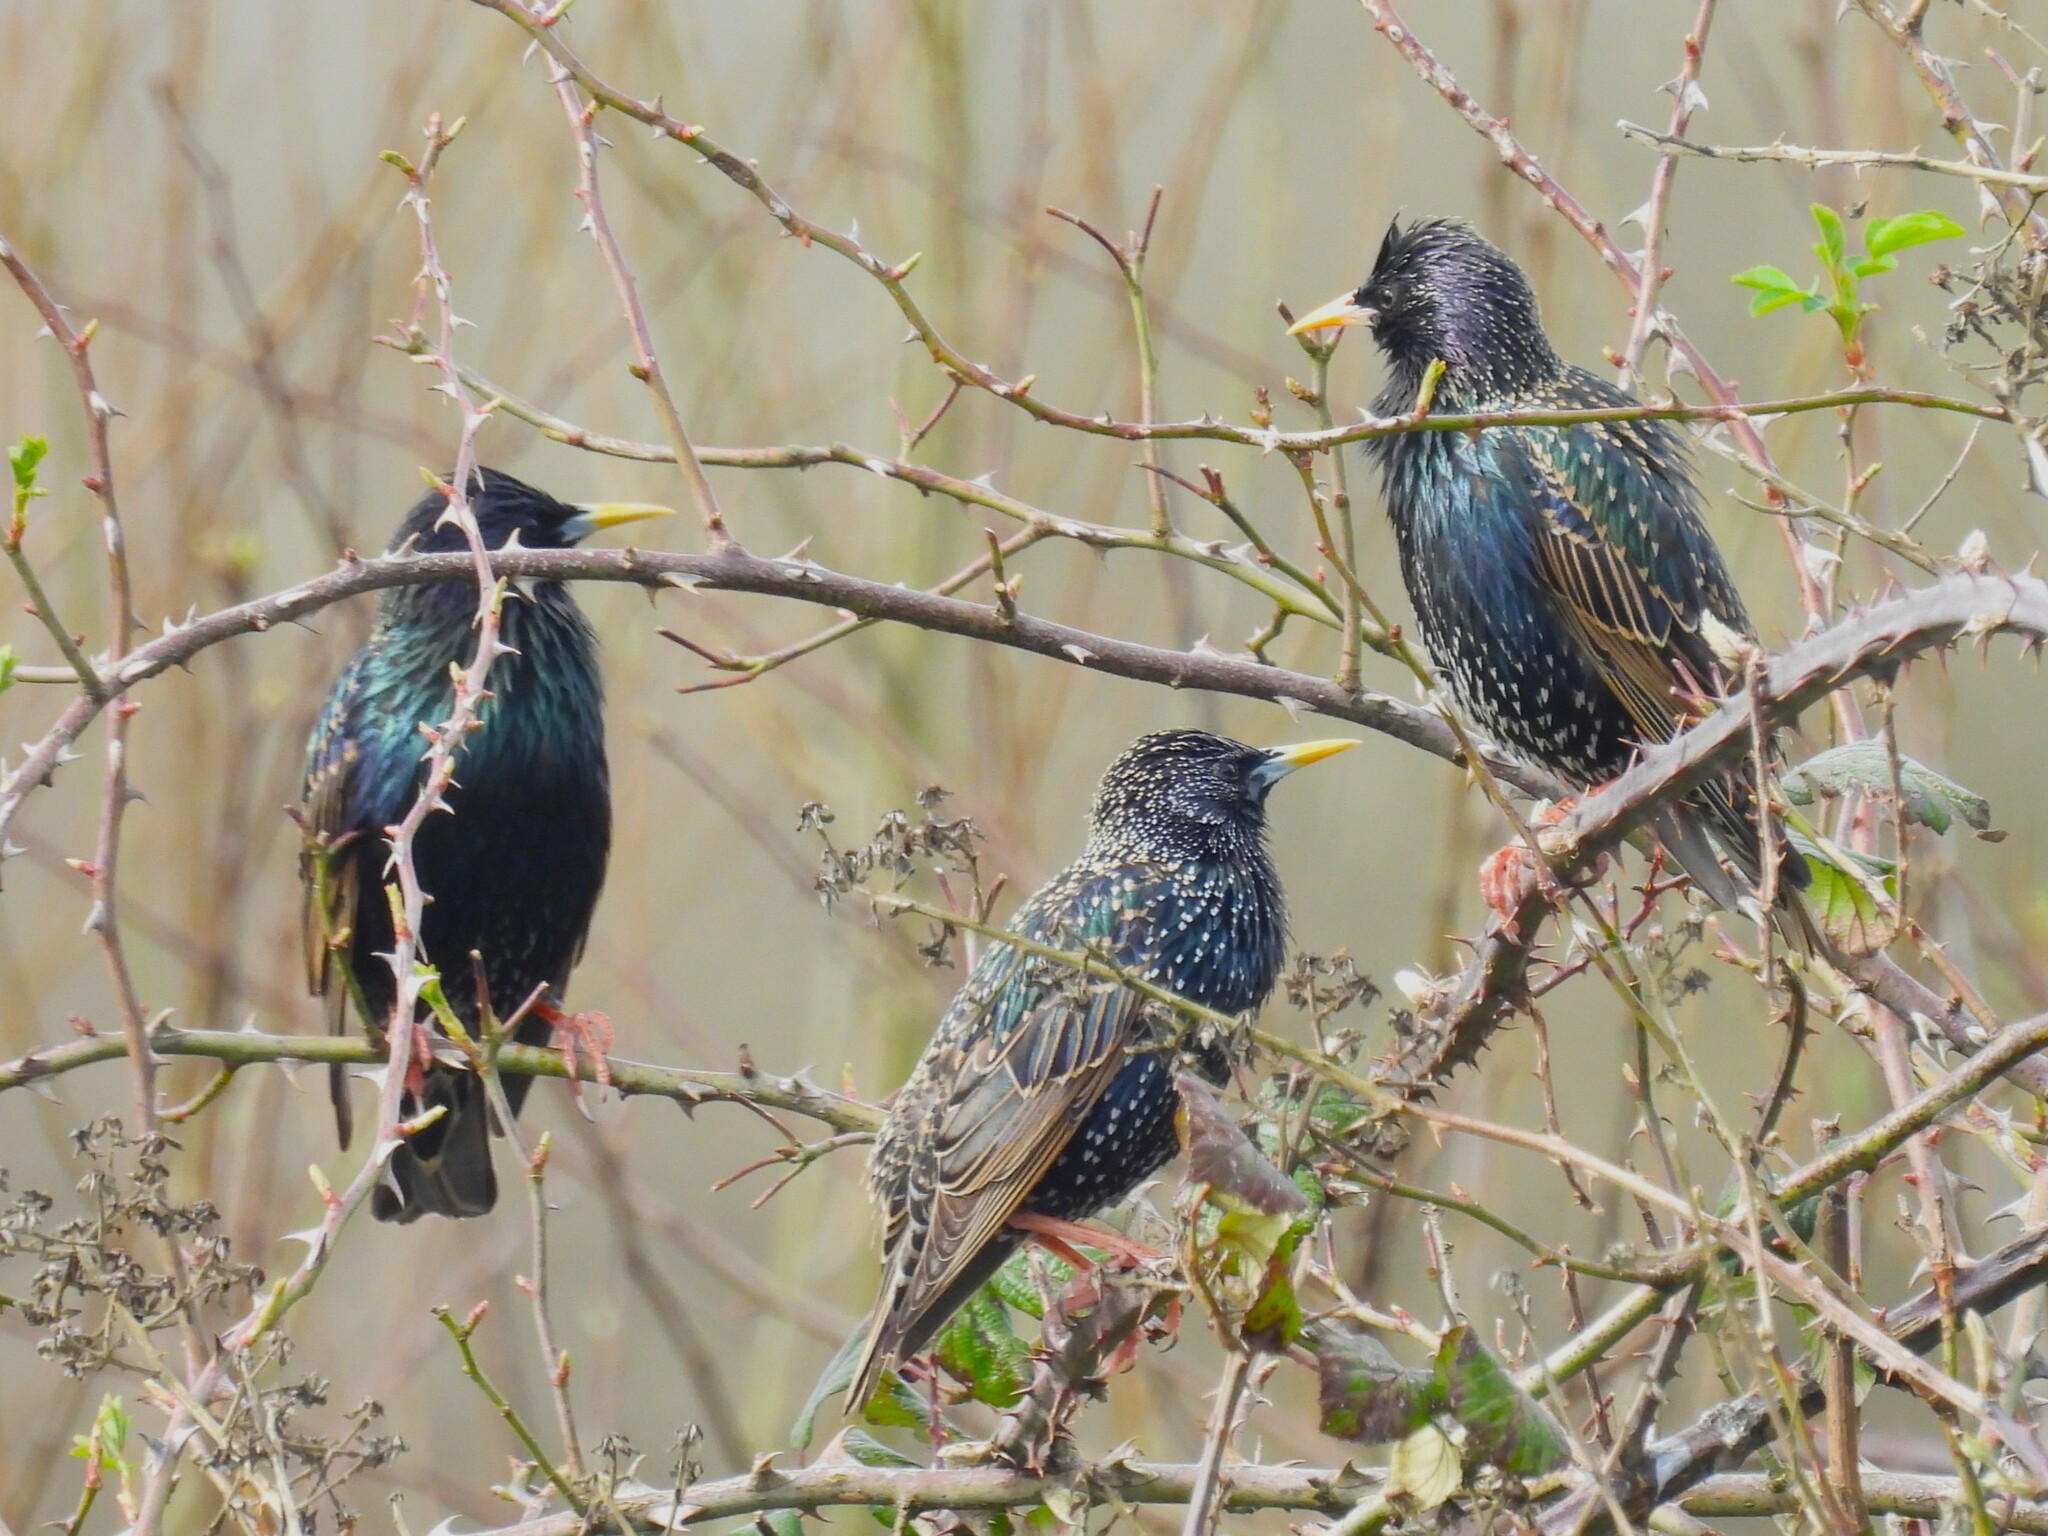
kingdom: Animalia
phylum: Chordata
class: Aves
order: Passeriformes
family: Sturnidae
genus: Sturnus
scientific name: Sturnus vulgaris
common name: Common starling
